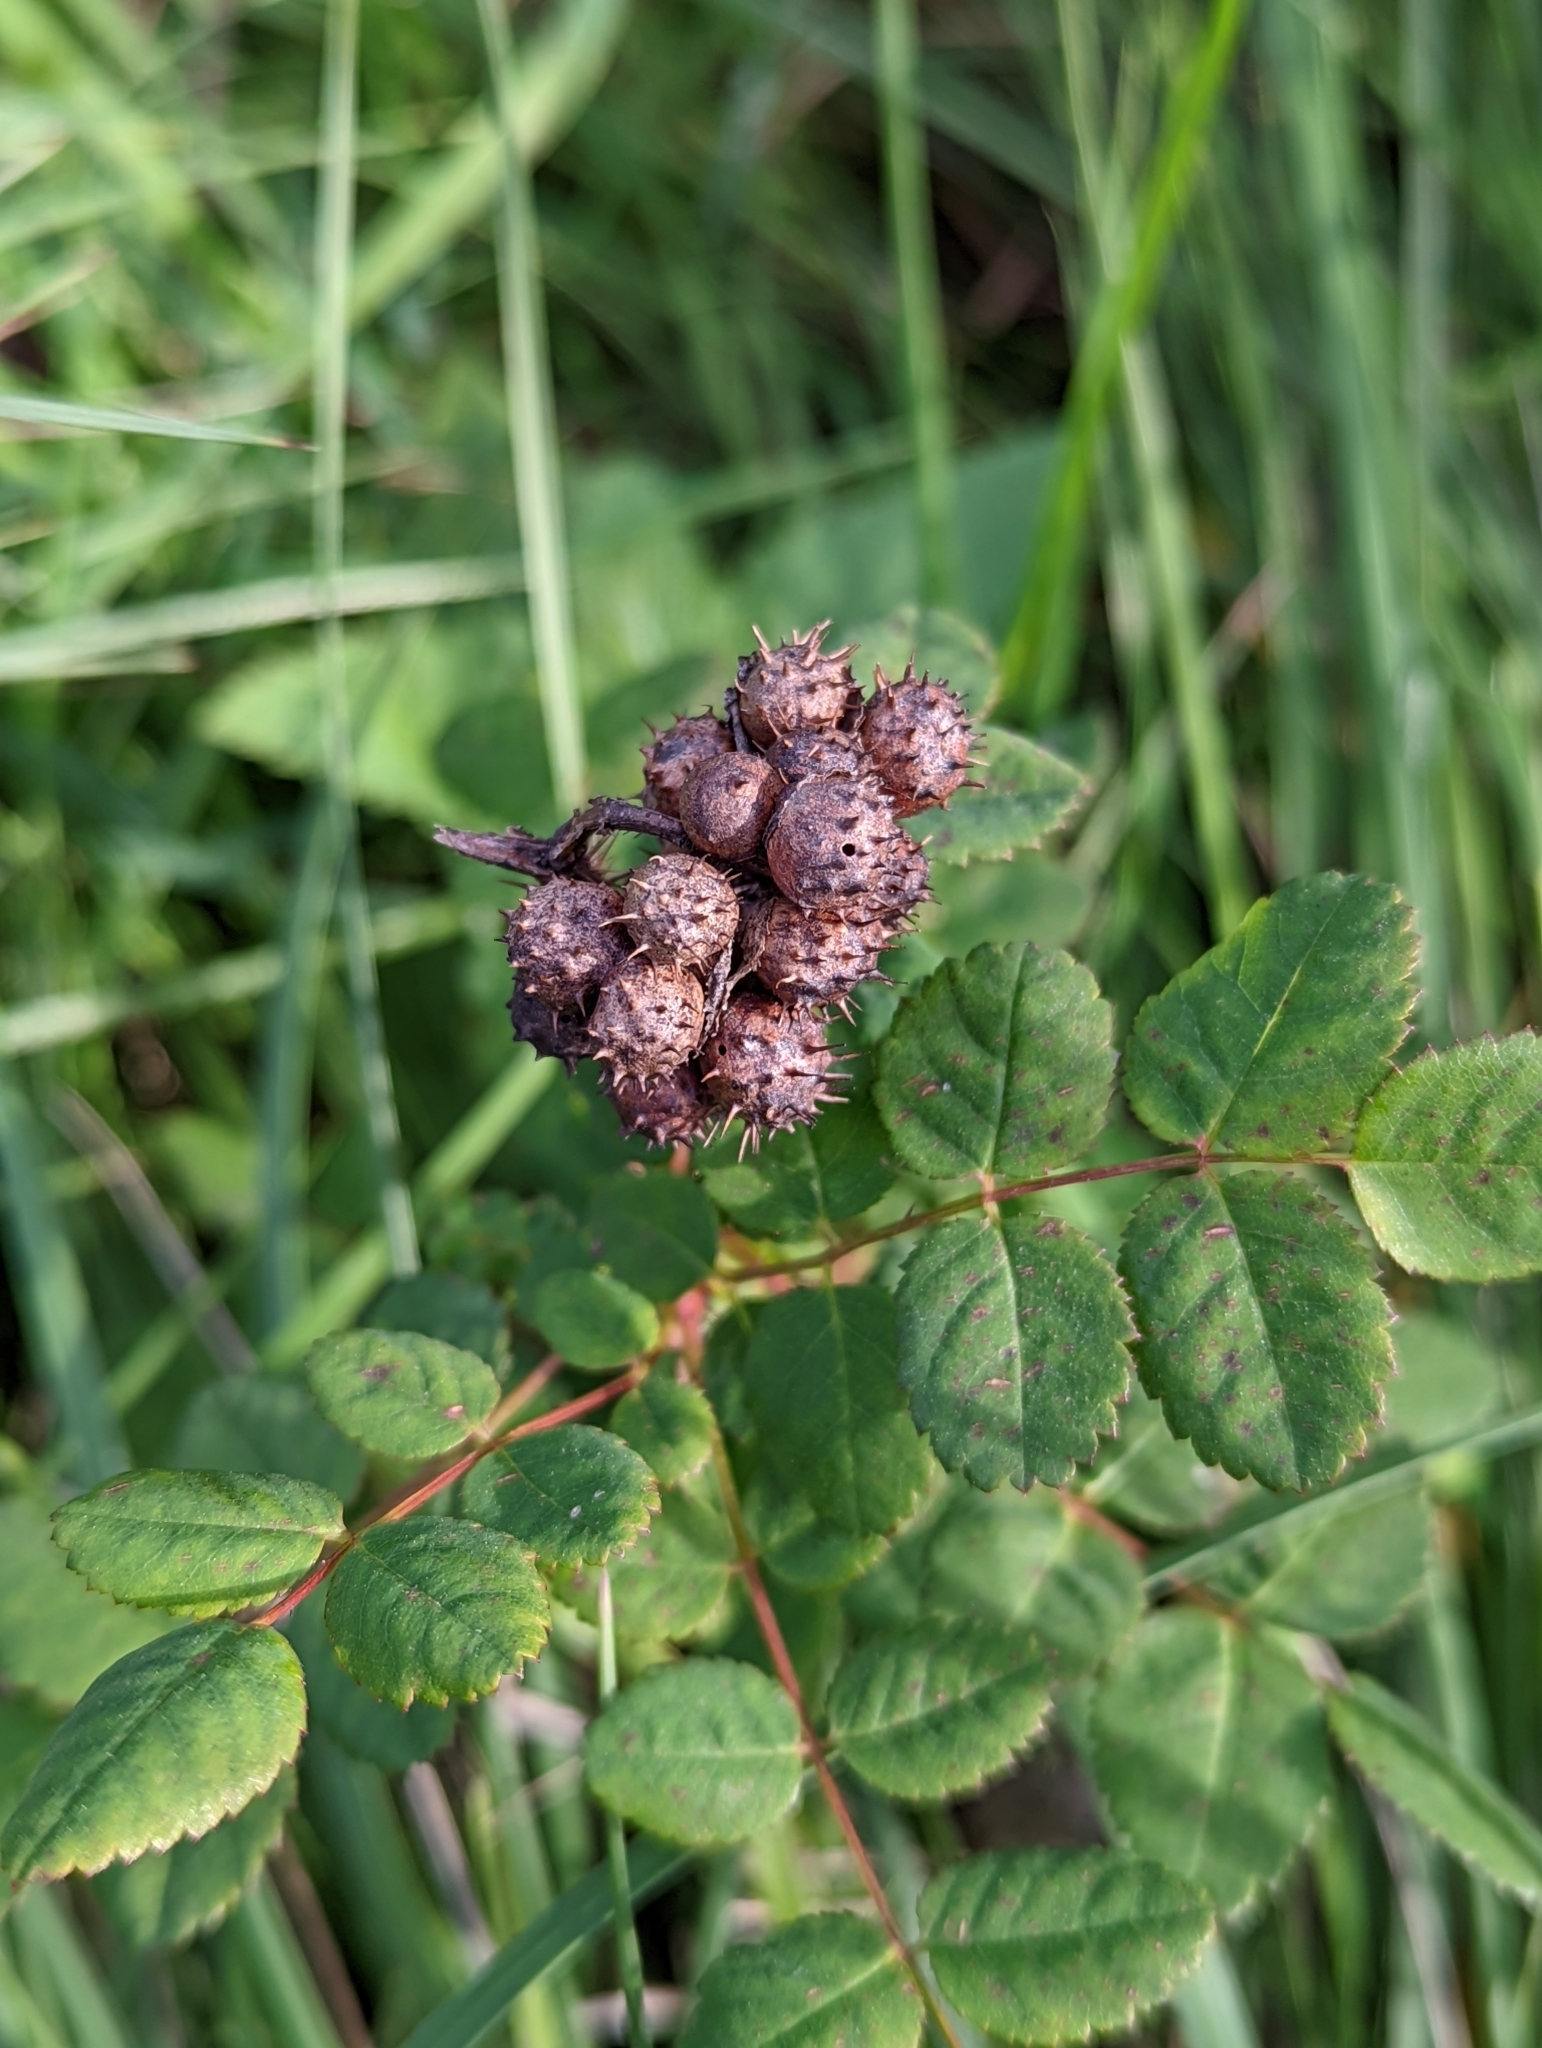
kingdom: Animalia
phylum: Arthropoda
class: Insecta
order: Hymenoptera
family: Cynipidae
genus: Diplolepis
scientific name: Diplolepis polita
